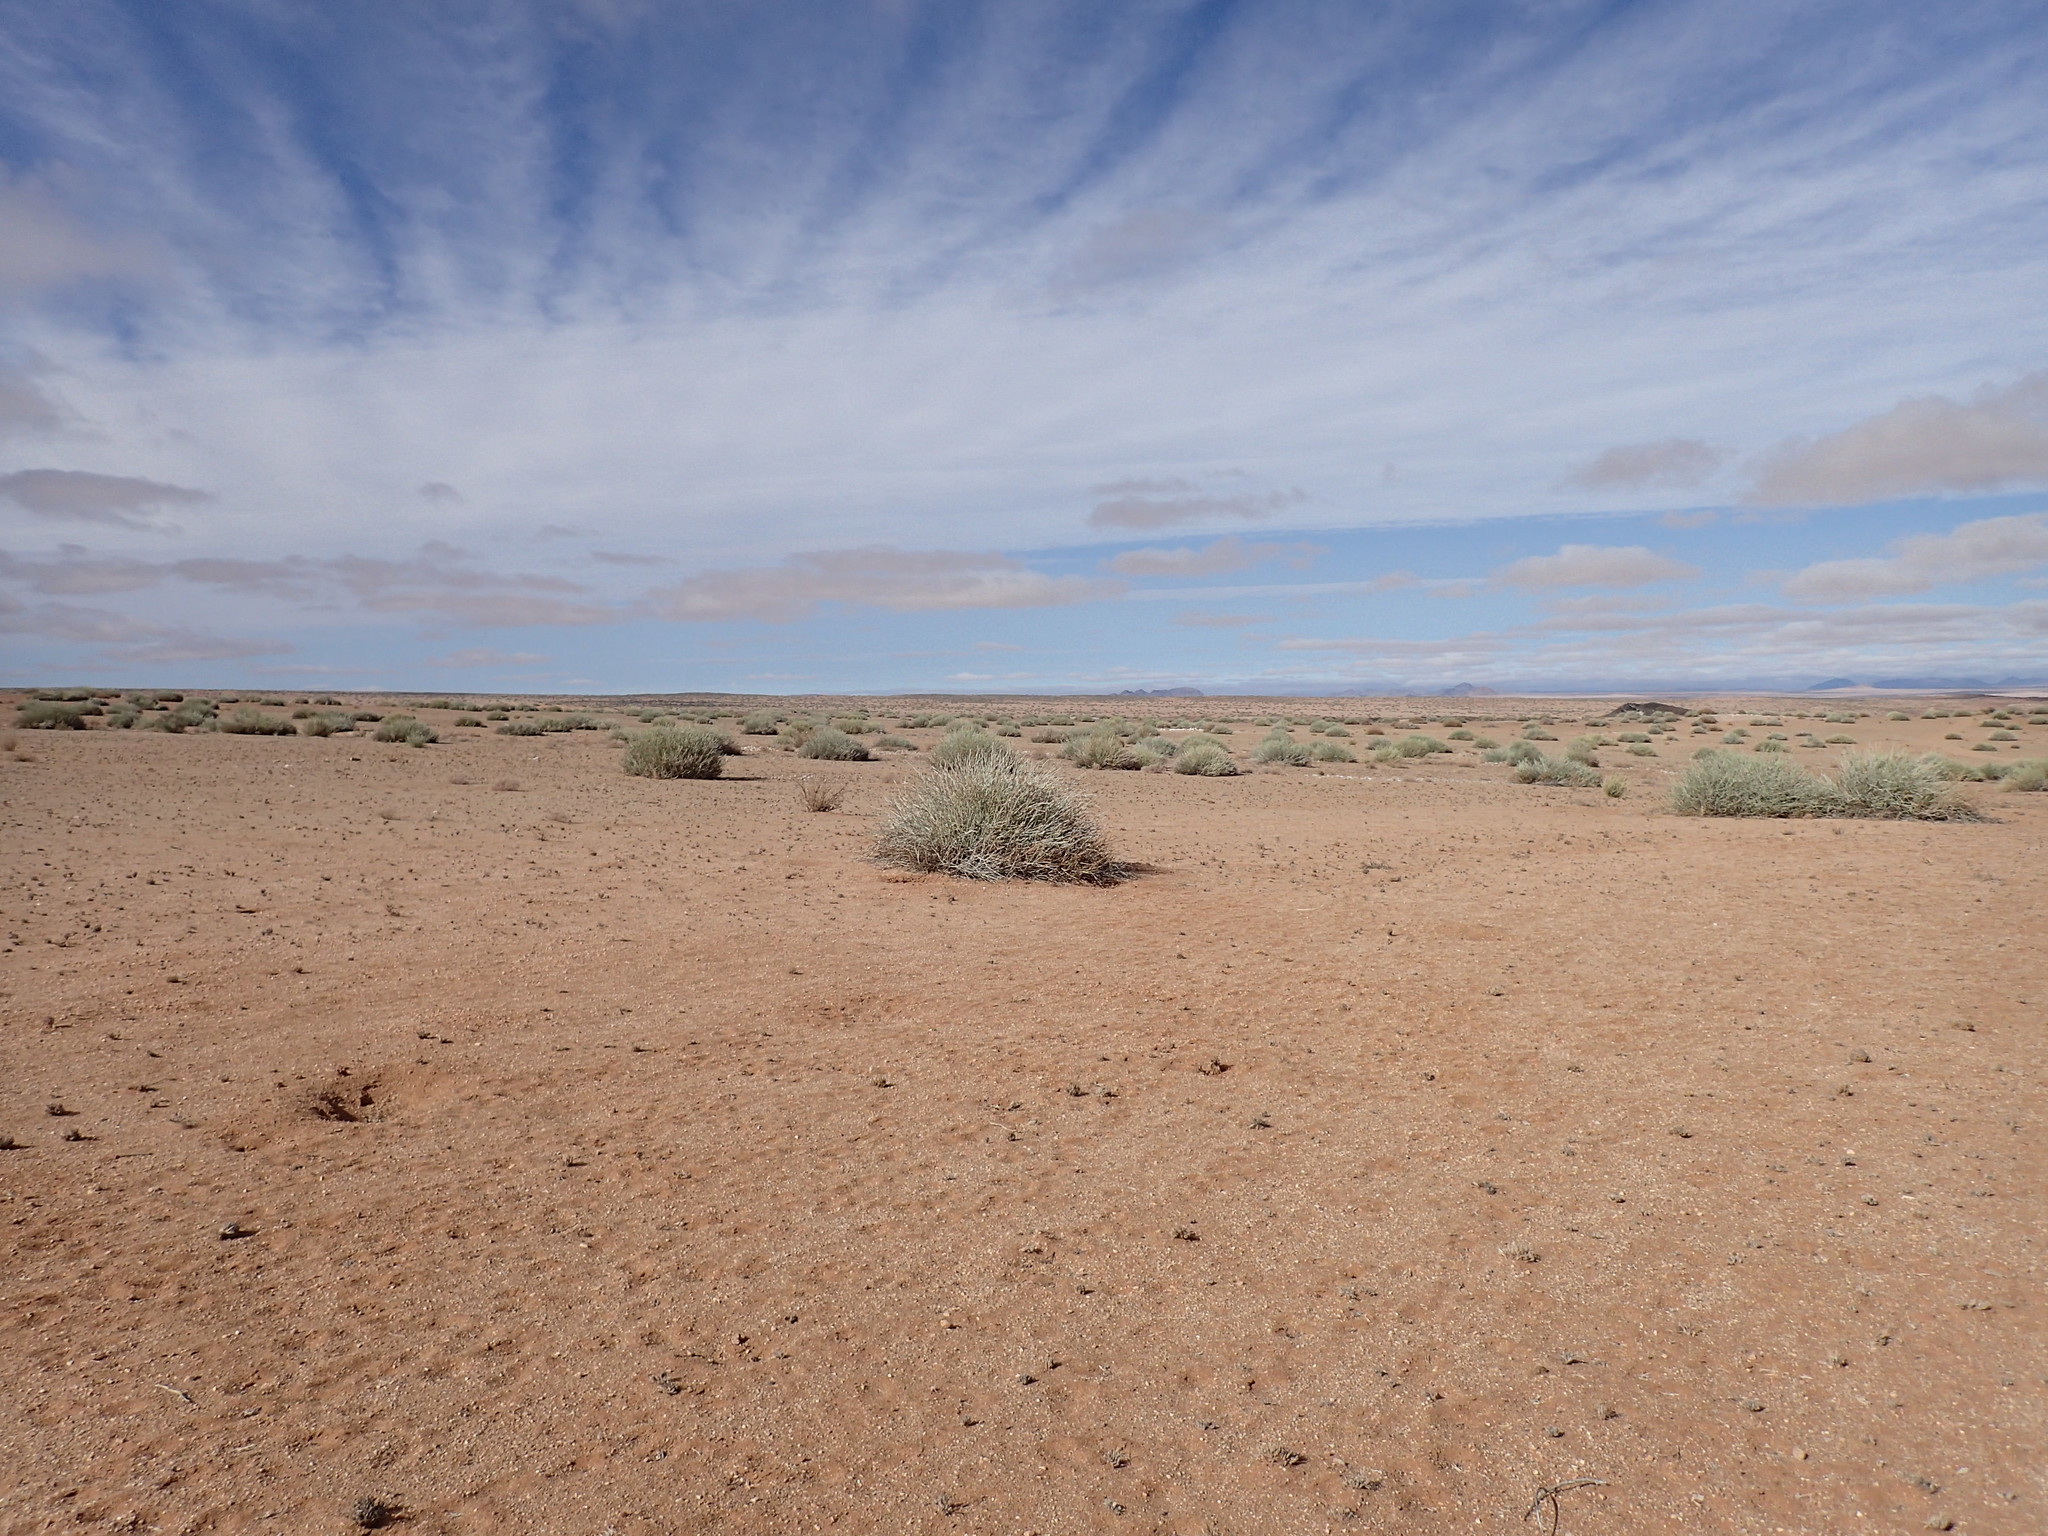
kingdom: Plantae
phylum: Tracheophyta
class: Magnoliopsida
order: Malpighiales
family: Euphorbiaceae
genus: Euphorbia
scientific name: Euphorbia gregaria
